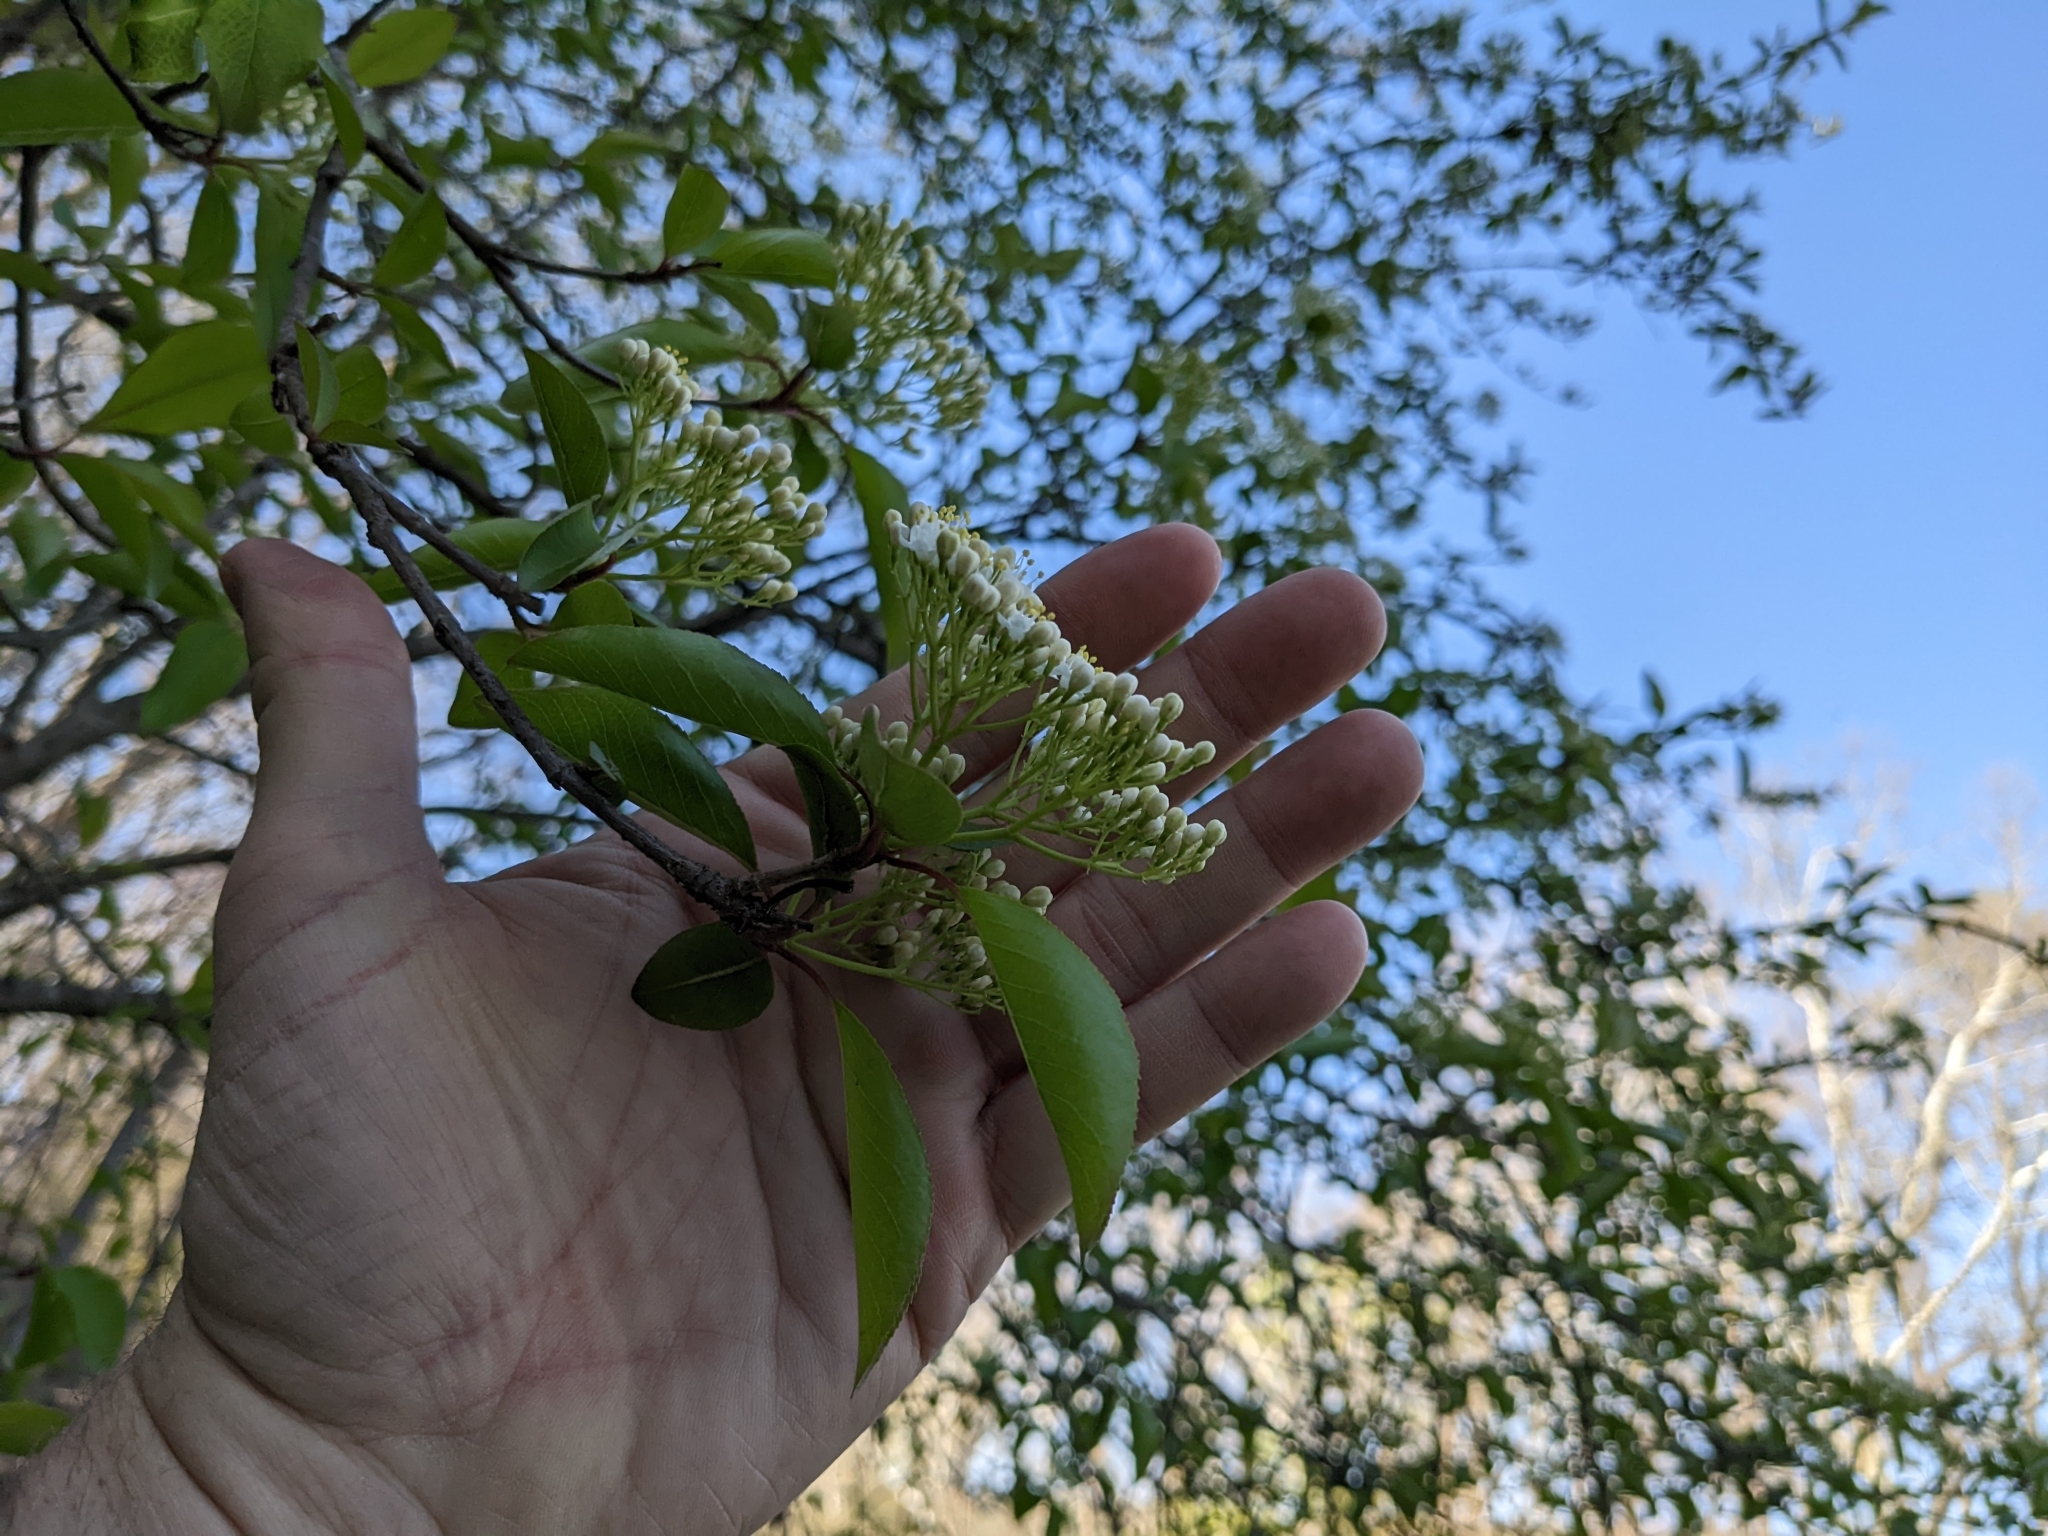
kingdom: Plantae
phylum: Tracheophyta
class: Magnoliopsida
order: Dipsacales
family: Viburnaceae
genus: Viburnum
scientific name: Viburnum prunifolium
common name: Black haw
